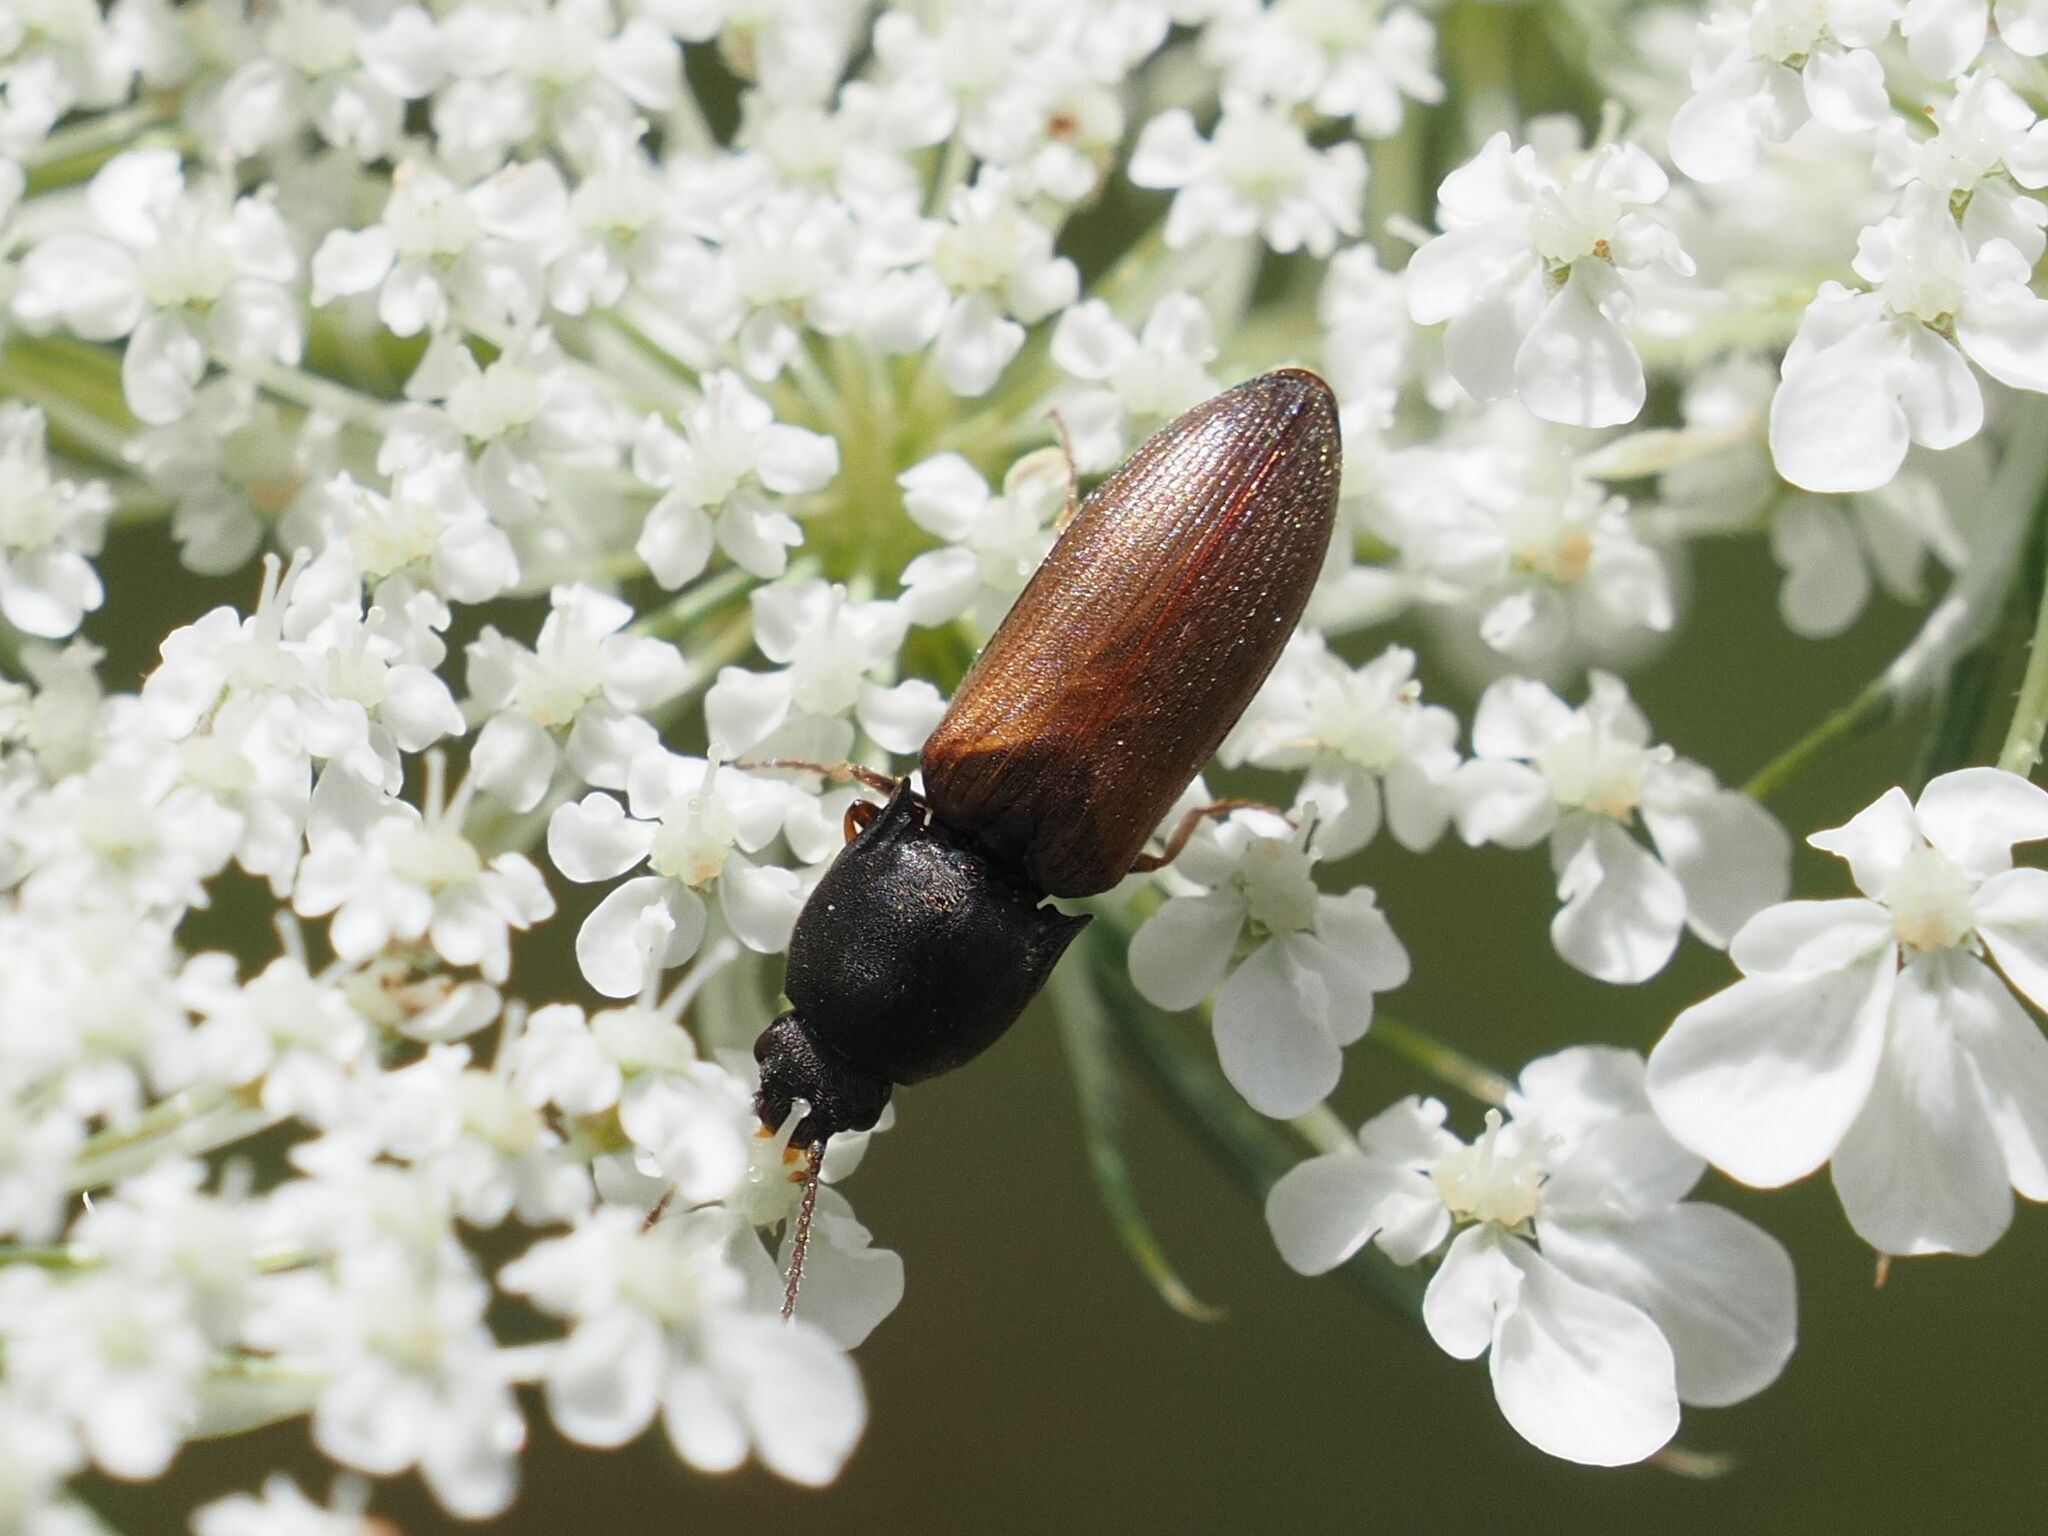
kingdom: Animalia
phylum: Arthropoda
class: Insecta
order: Coleoptera
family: Elateridae
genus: Agriotes
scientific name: Agriotes ustulatus
